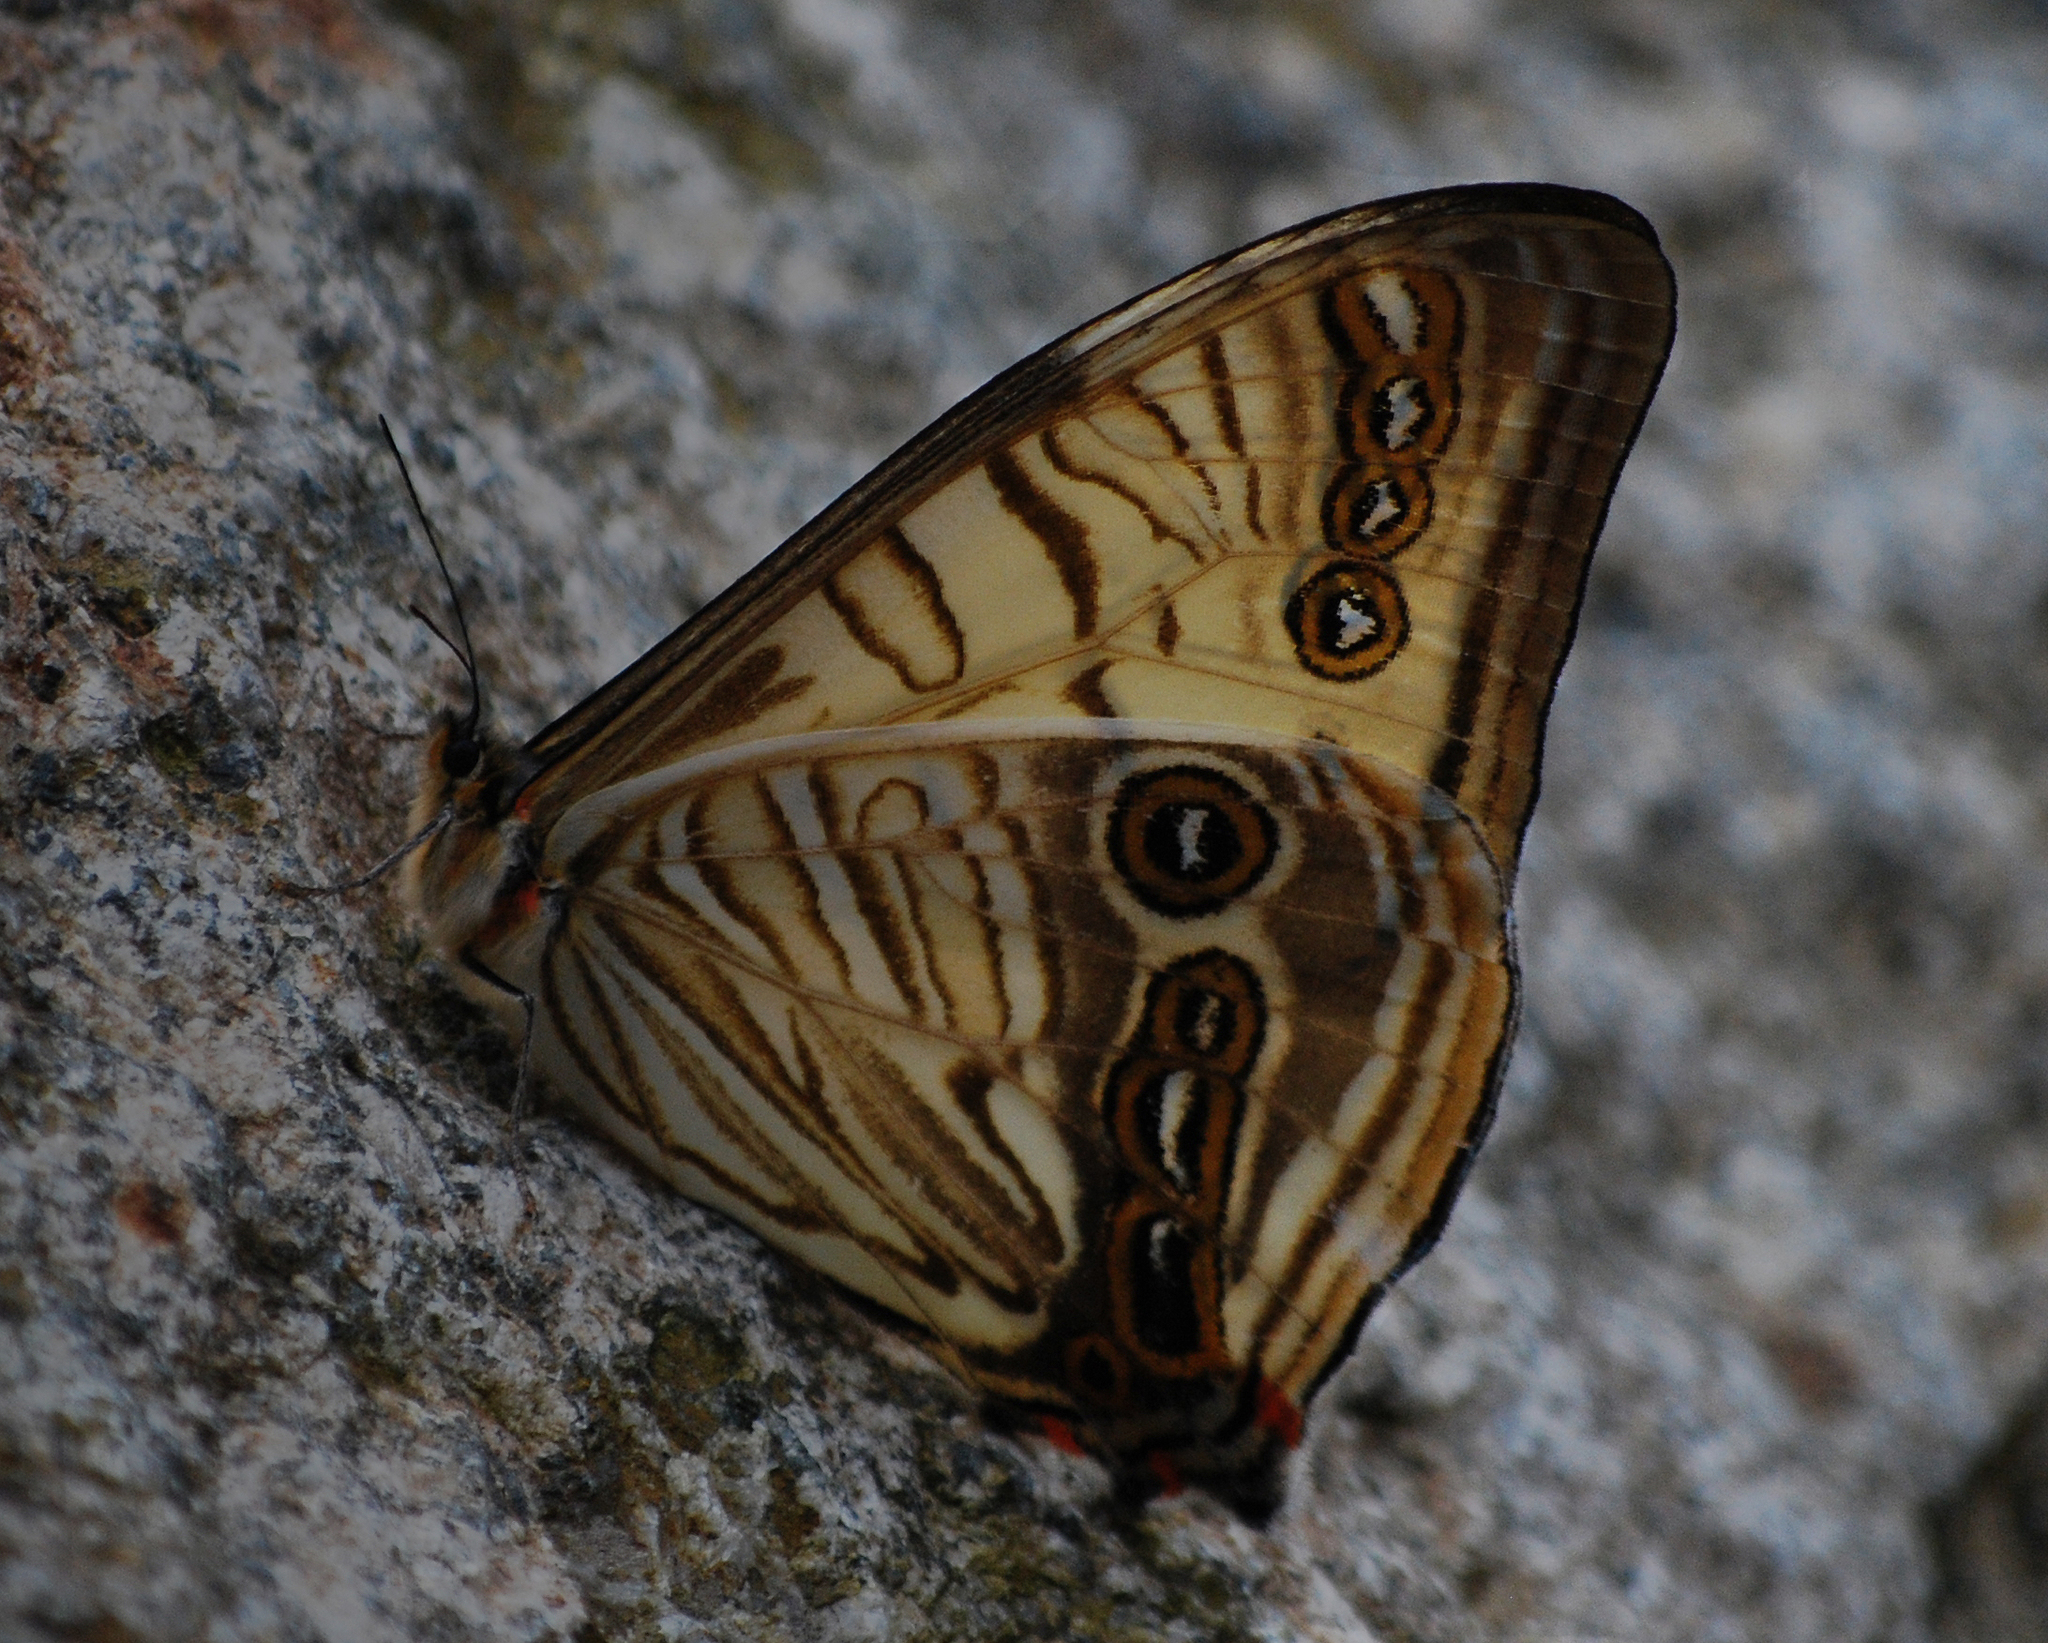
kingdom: Animalia
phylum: Arthropoda
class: Insecta
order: Lepidoptera
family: Nymphalidae
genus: Morpho
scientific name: Morpho sulkowskyi
